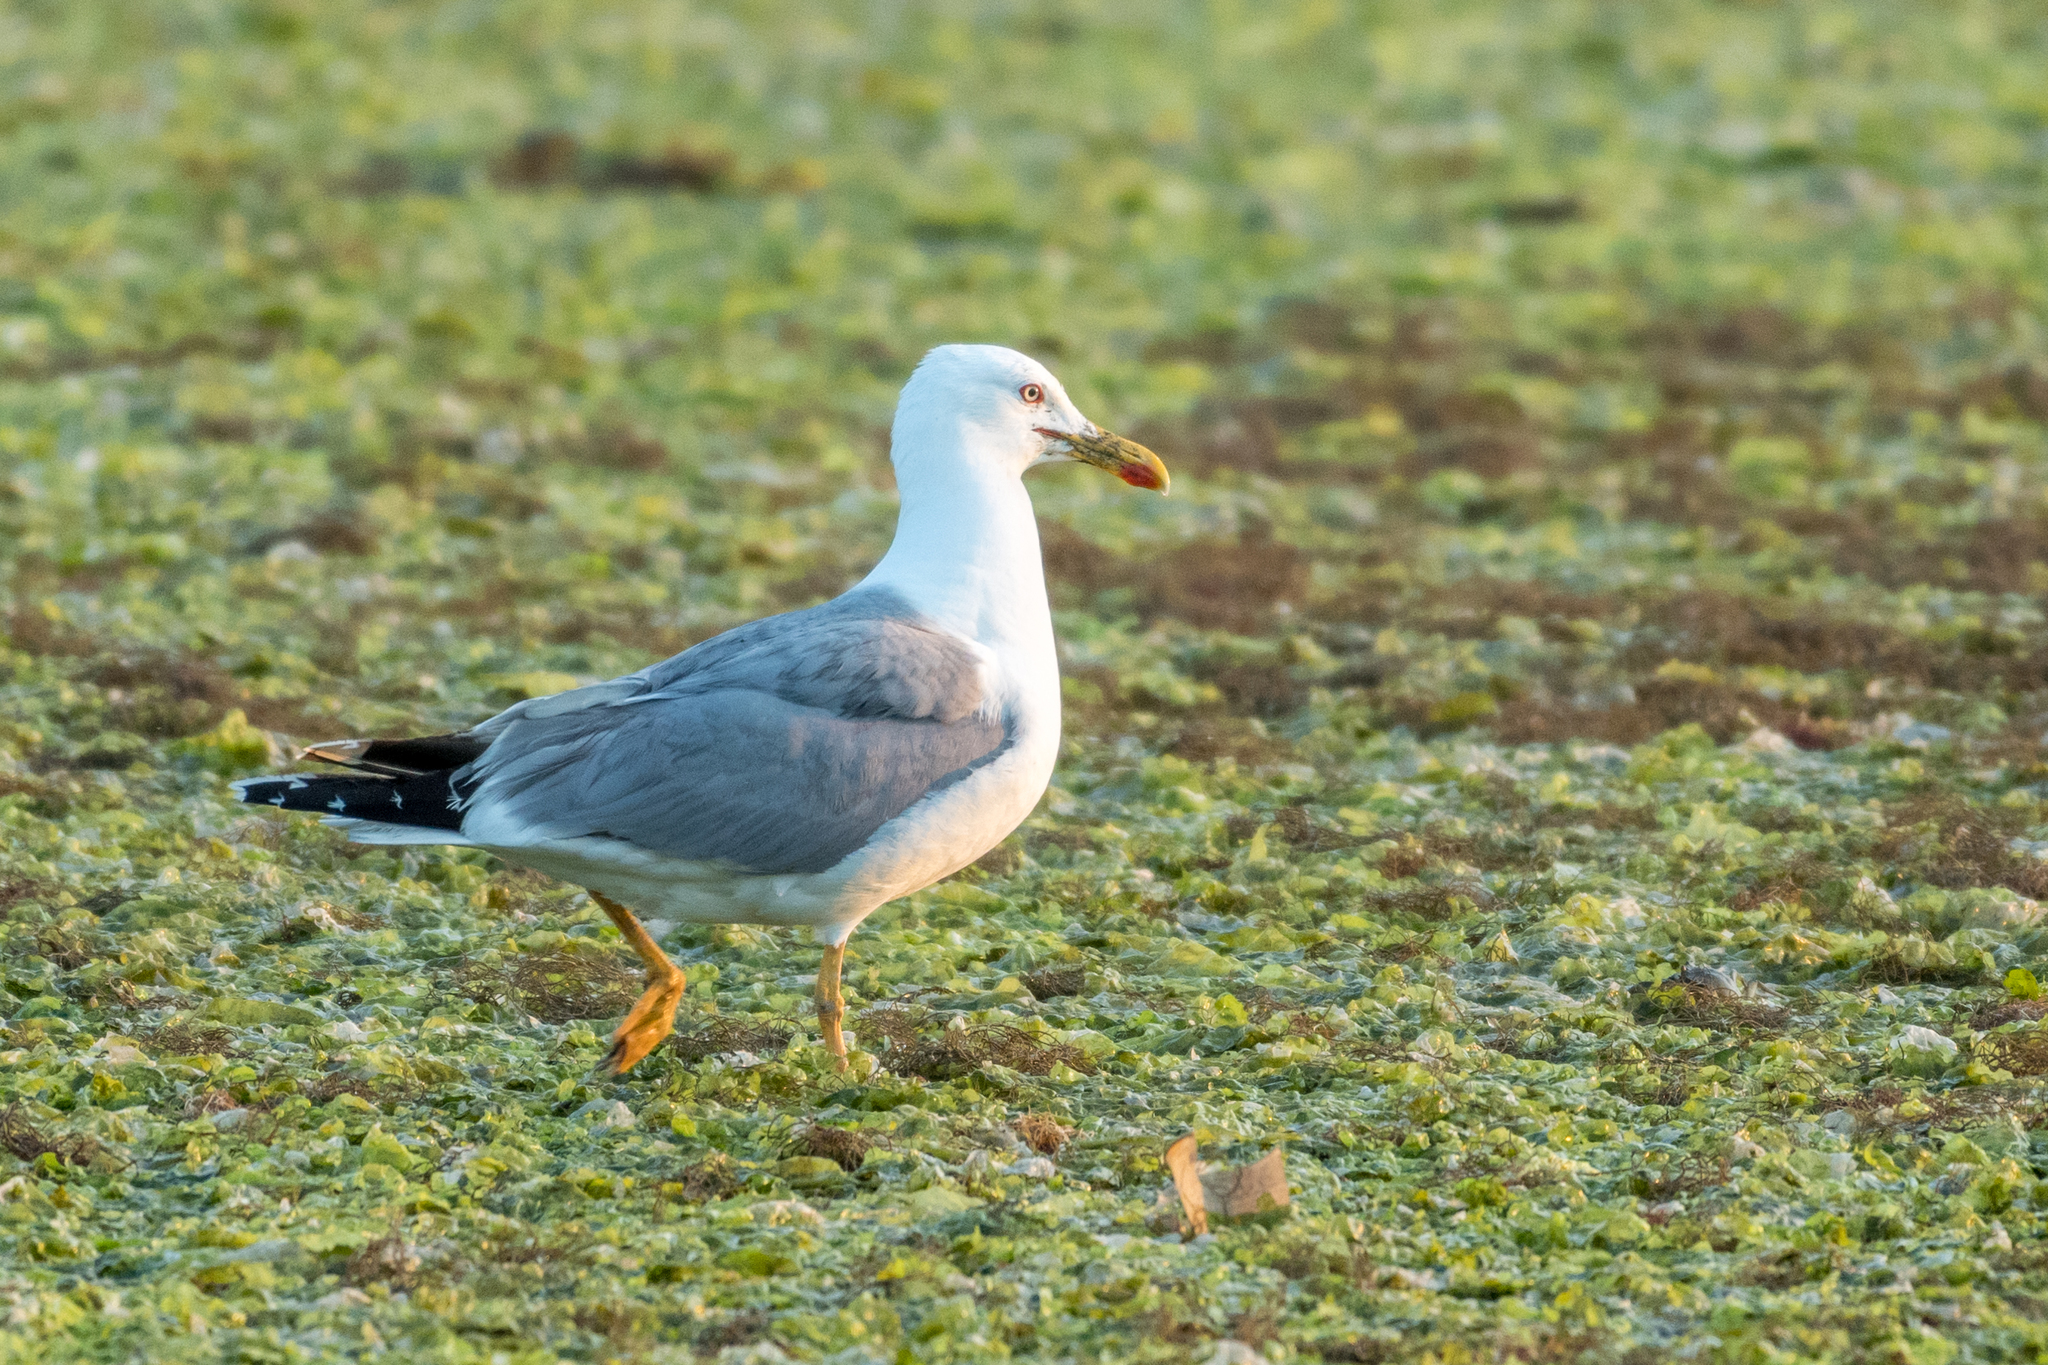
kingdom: Animalia
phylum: Chordata
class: Aves
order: Charadriiformes
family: Laridae
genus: Larus
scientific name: Larus michahellis
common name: Yellow-legged gull
